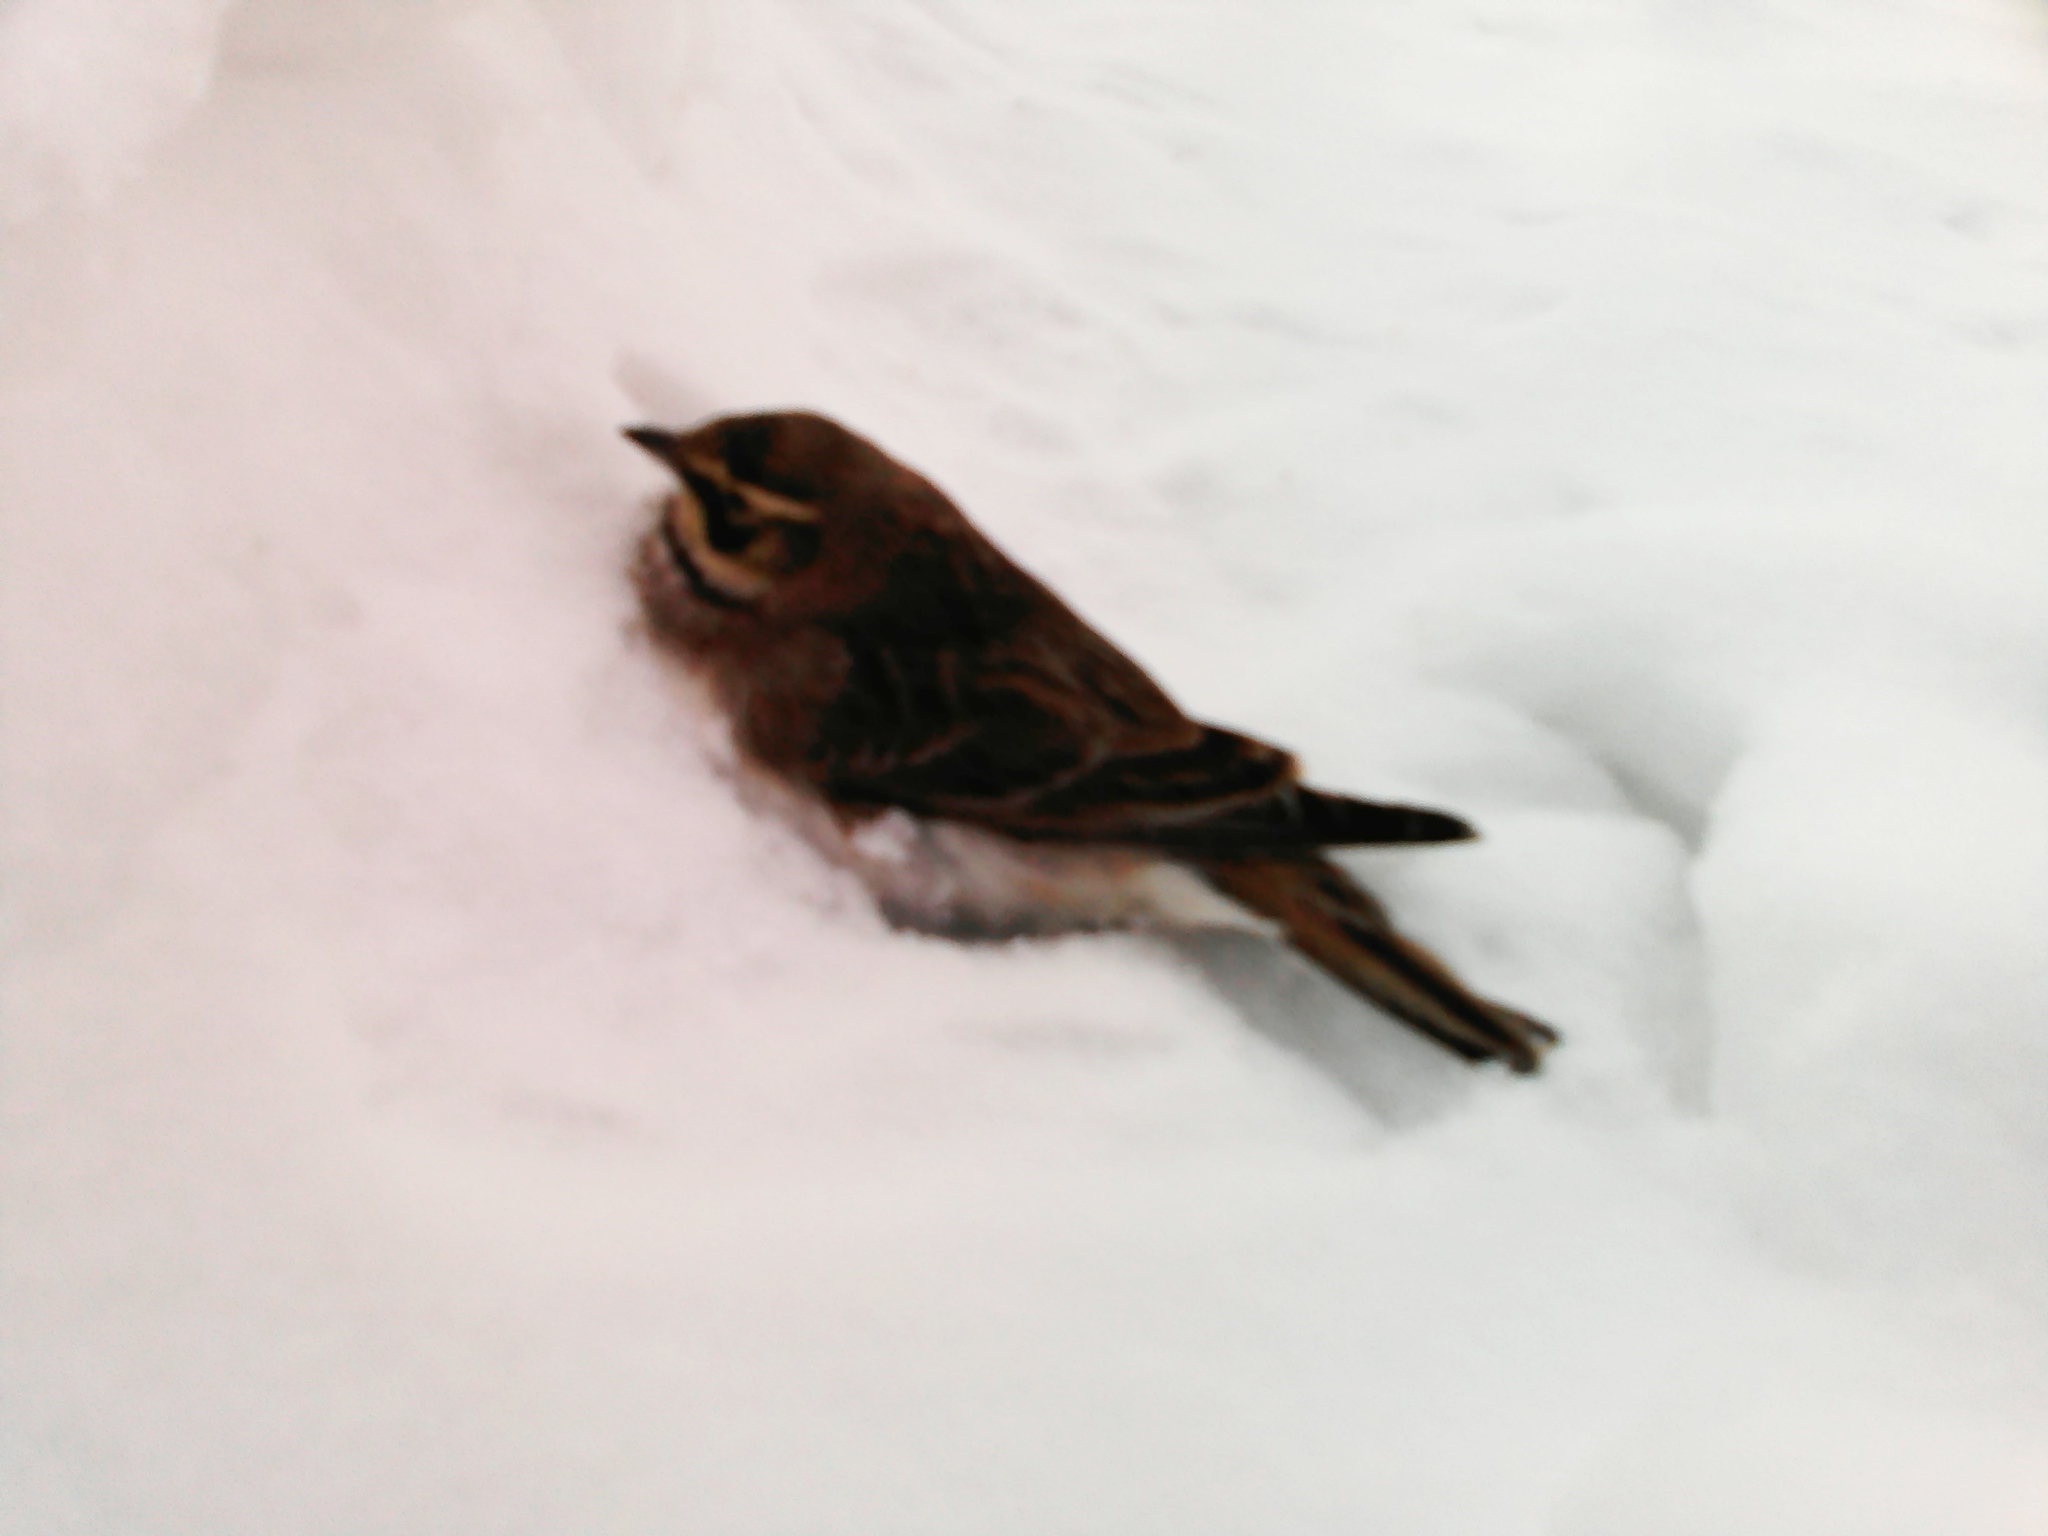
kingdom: Animalia
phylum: Chordata
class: Aves
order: Passeriformes
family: Alaudidae
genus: Eremophila
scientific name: Eremophila alpestris
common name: Horned lark
